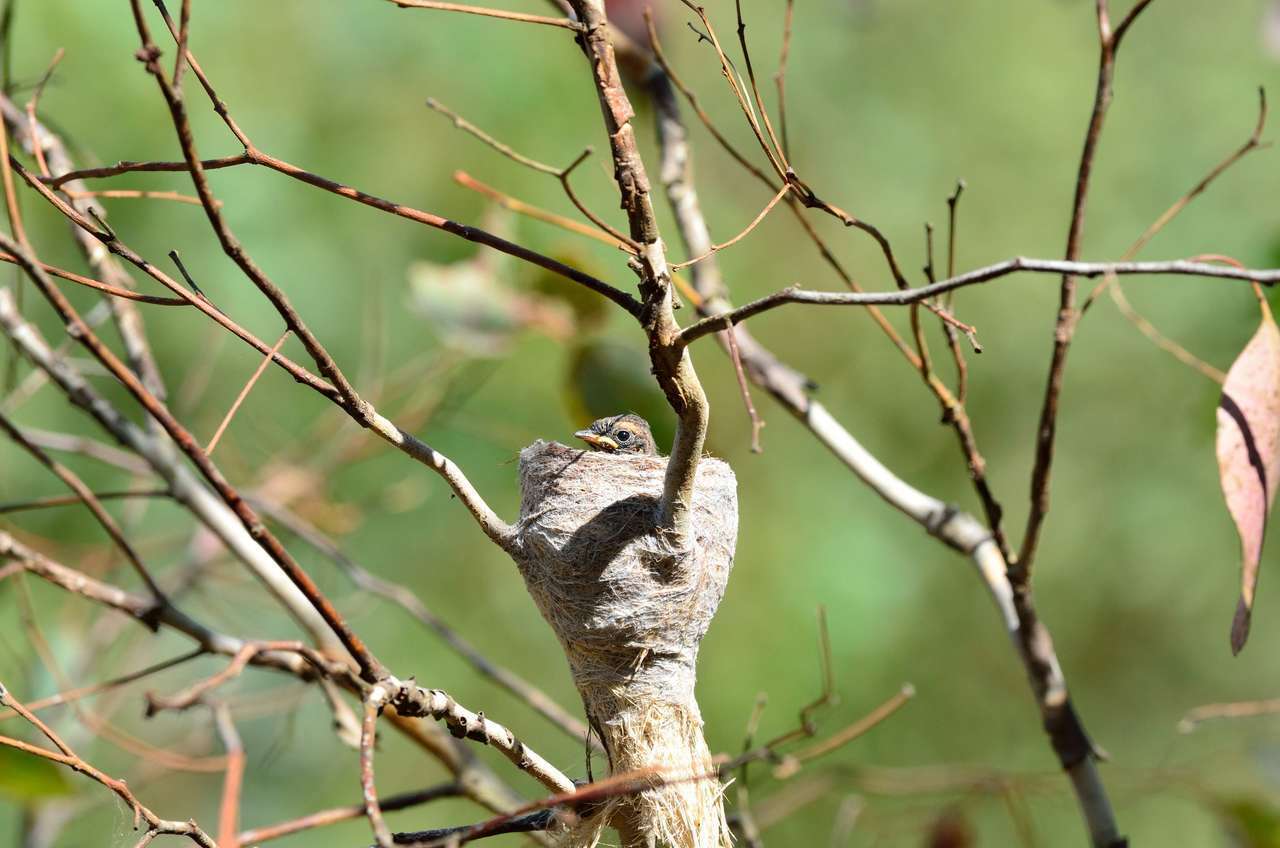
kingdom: Animalia
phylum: Chordata
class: Aves
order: Passeriformes
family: Rhipiduridae
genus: Rhipidura
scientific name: Rhipidura albiscapa
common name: Grey fantail
